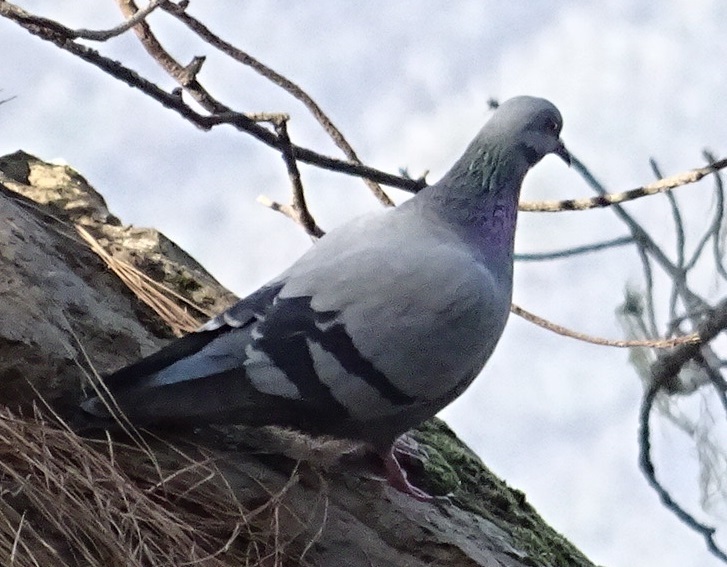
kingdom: Animalia
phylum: Chordata
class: Aves
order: Columbiformes
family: Columbidae
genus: Columba
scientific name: Columba livia
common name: Rock pigeon
